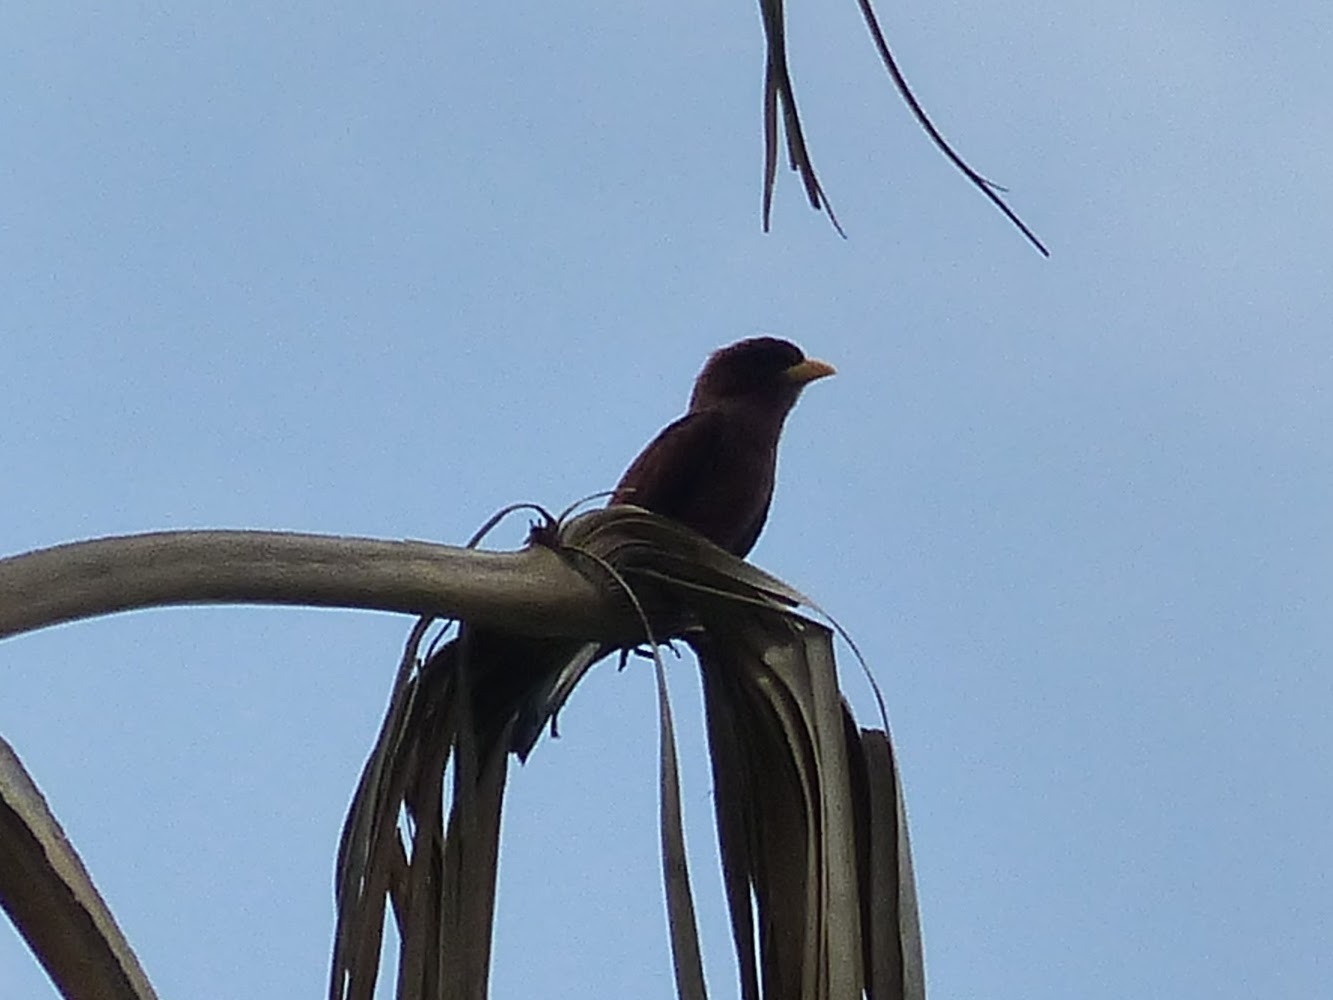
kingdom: Animalia
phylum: Chordata
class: Aves
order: Coraciiformes
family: Coraciidae
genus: Eurystomus
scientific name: Eurystomus glaucurus
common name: Broad-billed roller
